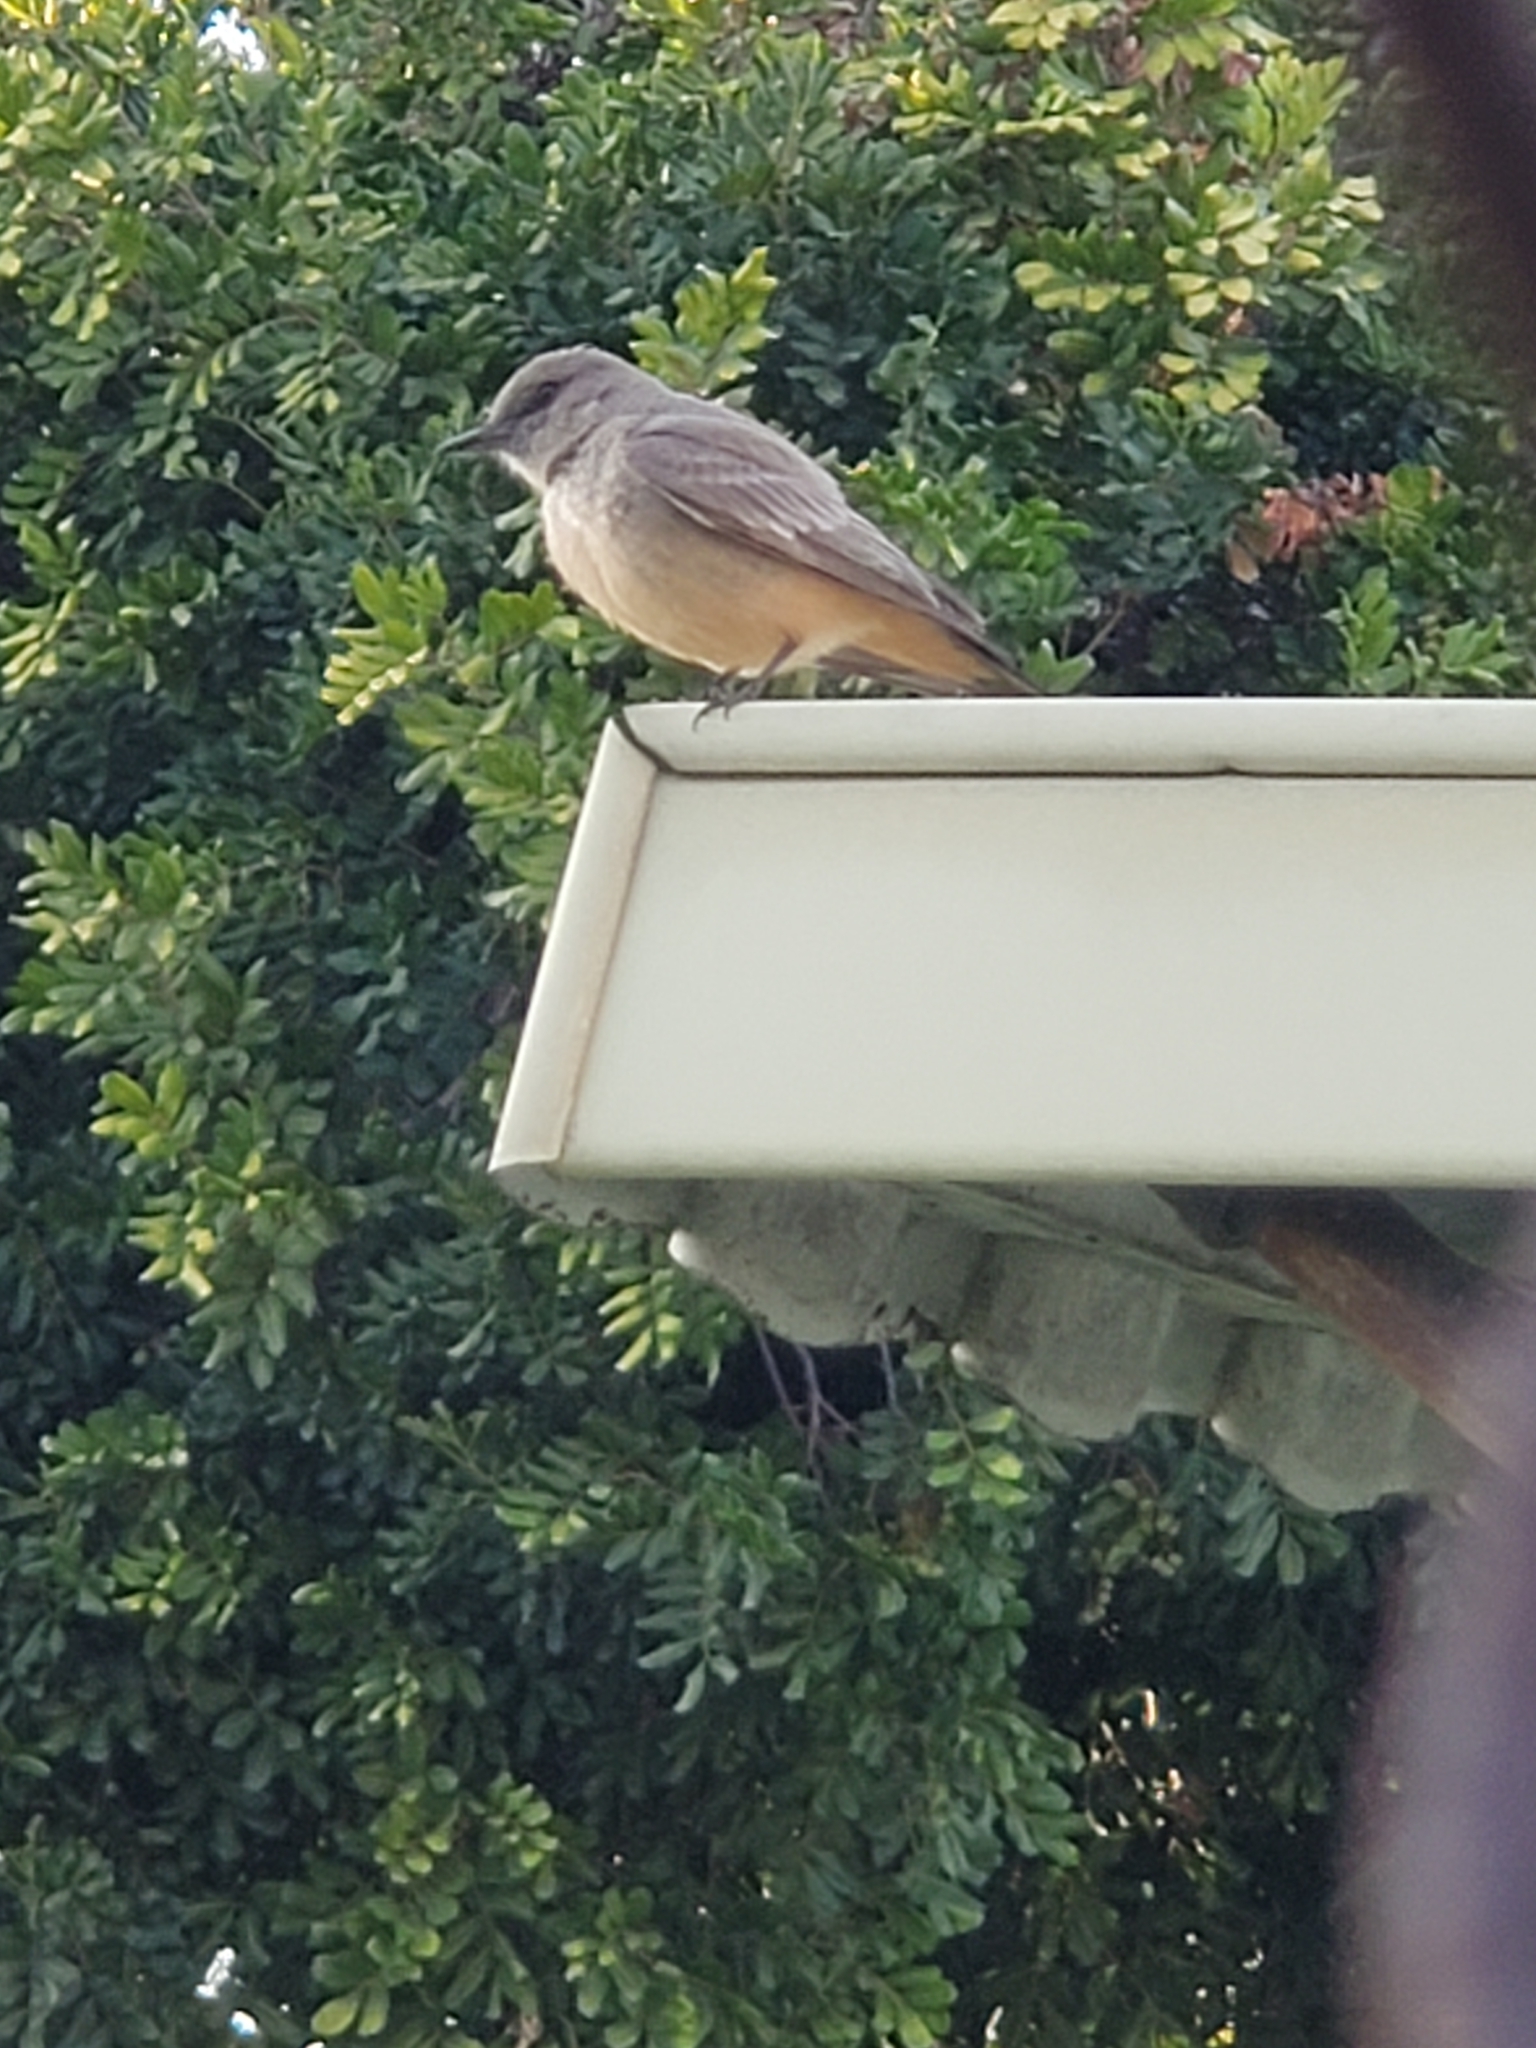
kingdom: Animalia
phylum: Chordata
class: Aves
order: Passeriformes
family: Tyrannidae
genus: Sayornis
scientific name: Sayornis saya
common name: Say's phoebe
